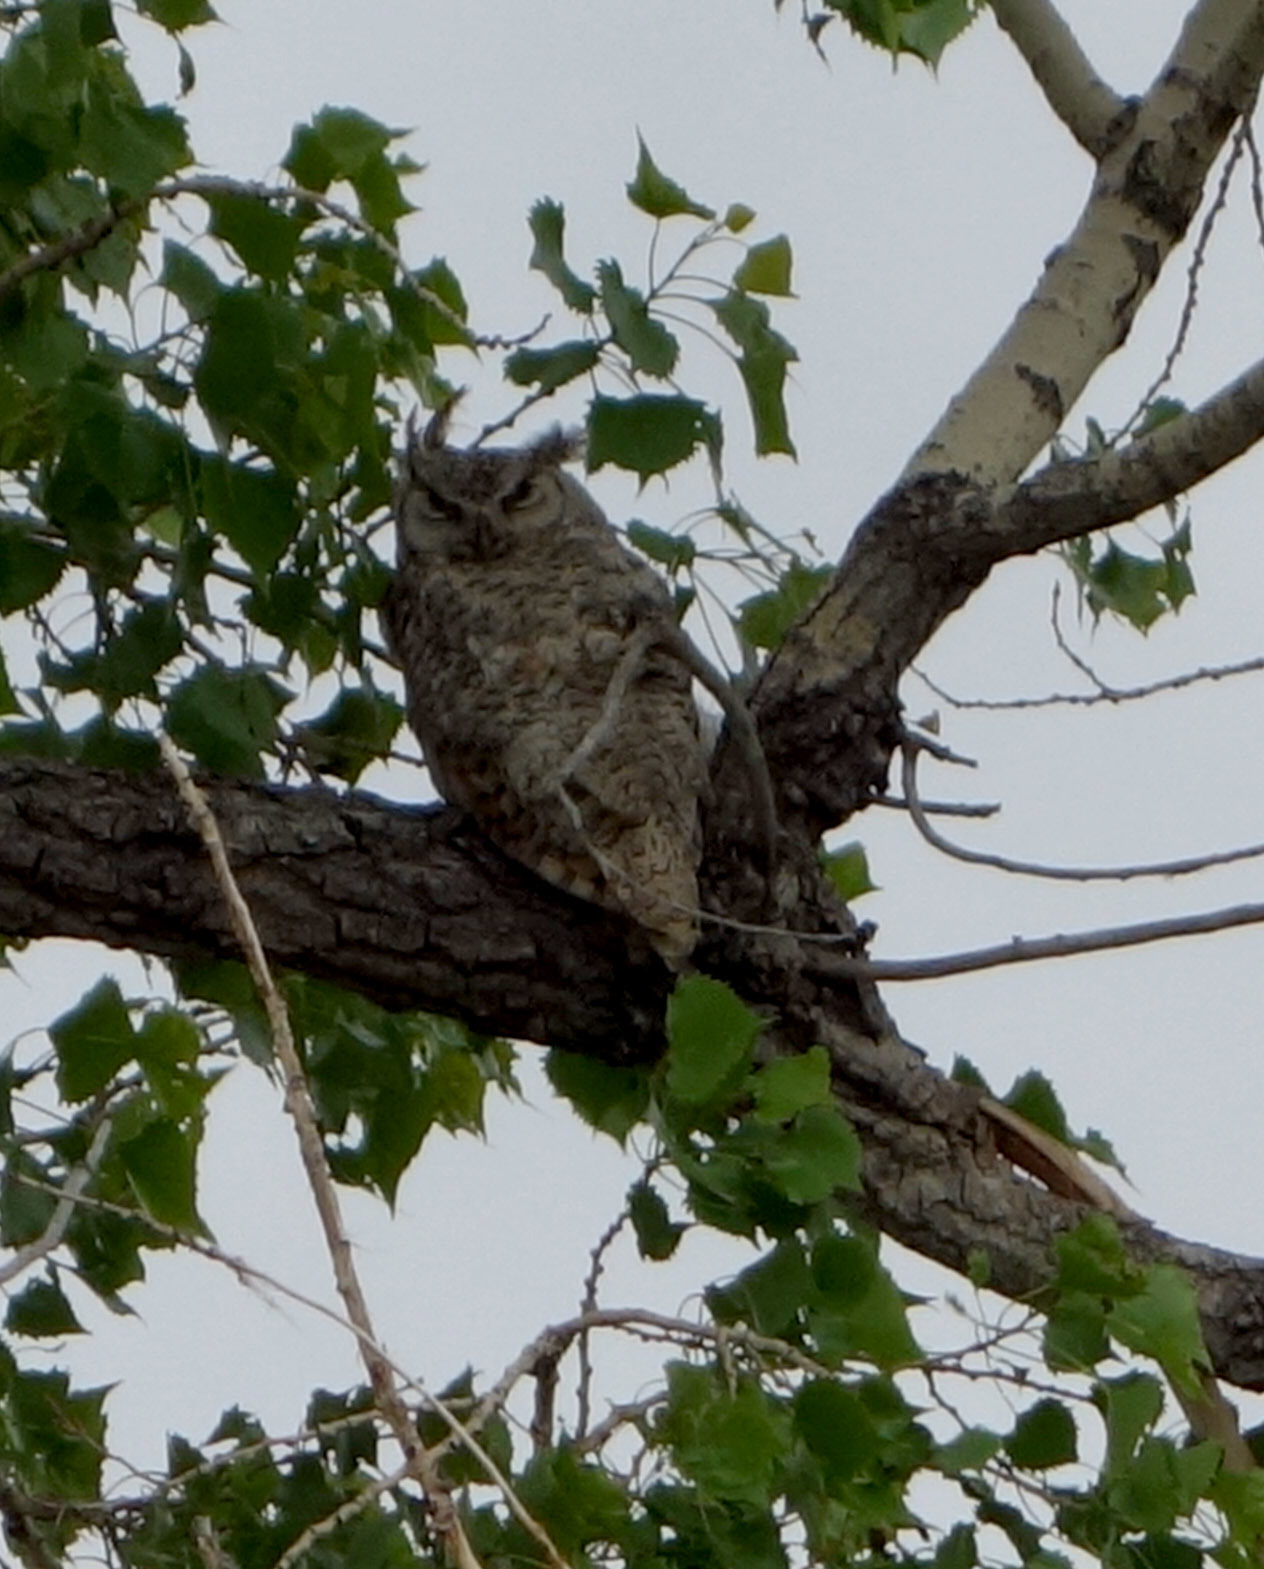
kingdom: Animalia
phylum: Chordata
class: Aves
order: Strigiformes
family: Strigidae
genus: Bubo
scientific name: Bubo virginianus
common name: Great horned owl
